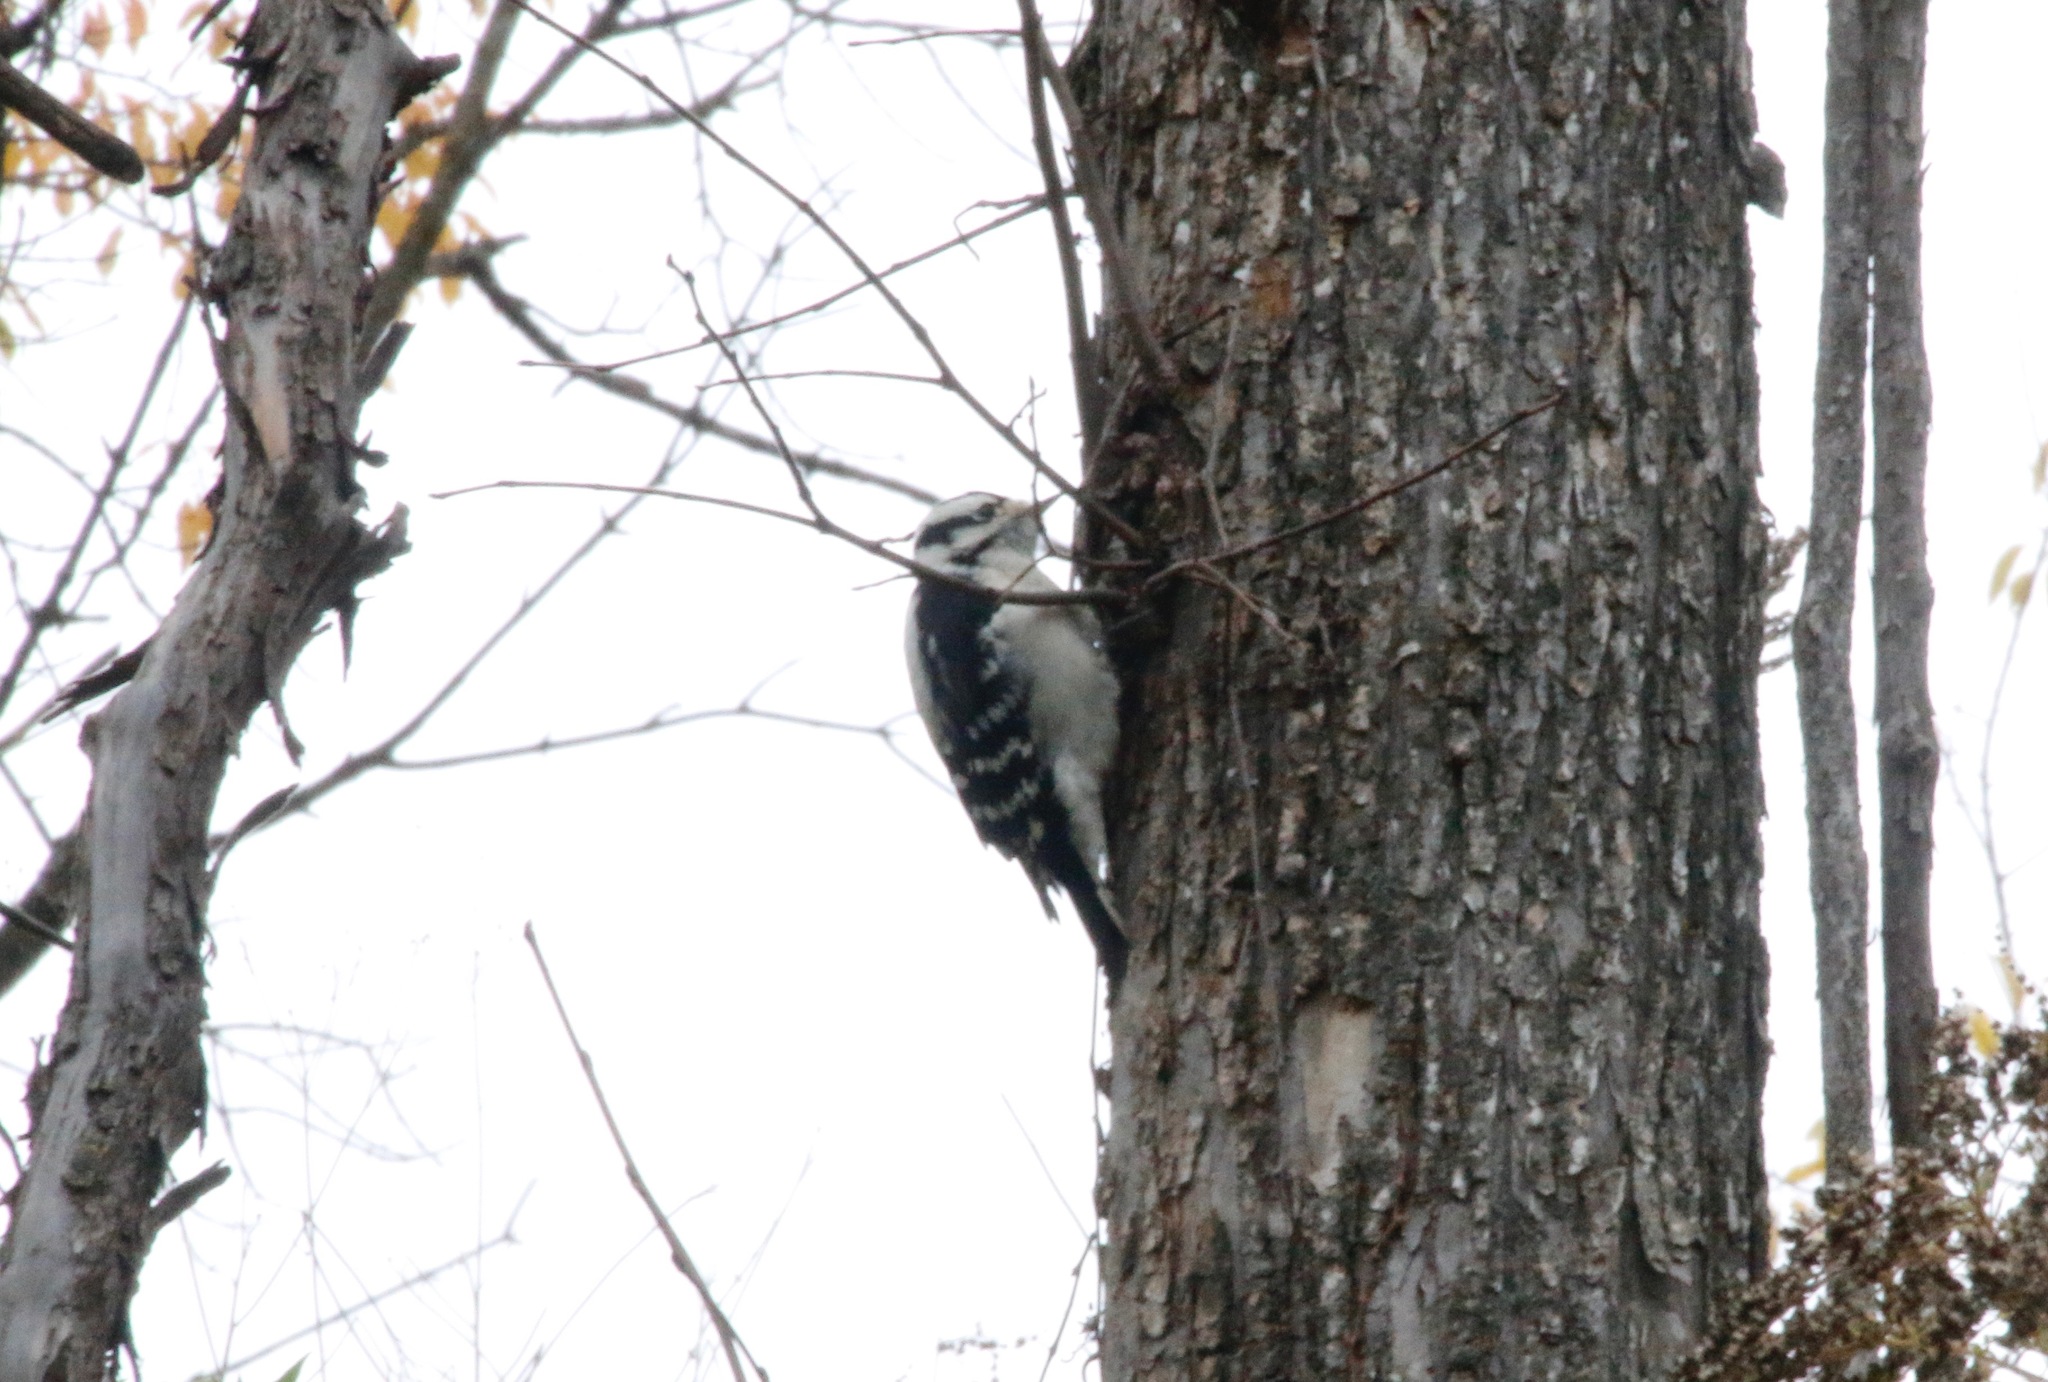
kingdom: Animalia
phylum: Chordata
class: Aves
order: Piciformes
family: Picidae
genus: Dryobates
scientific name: Dryobates pubescens
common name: Downy woodpecker
